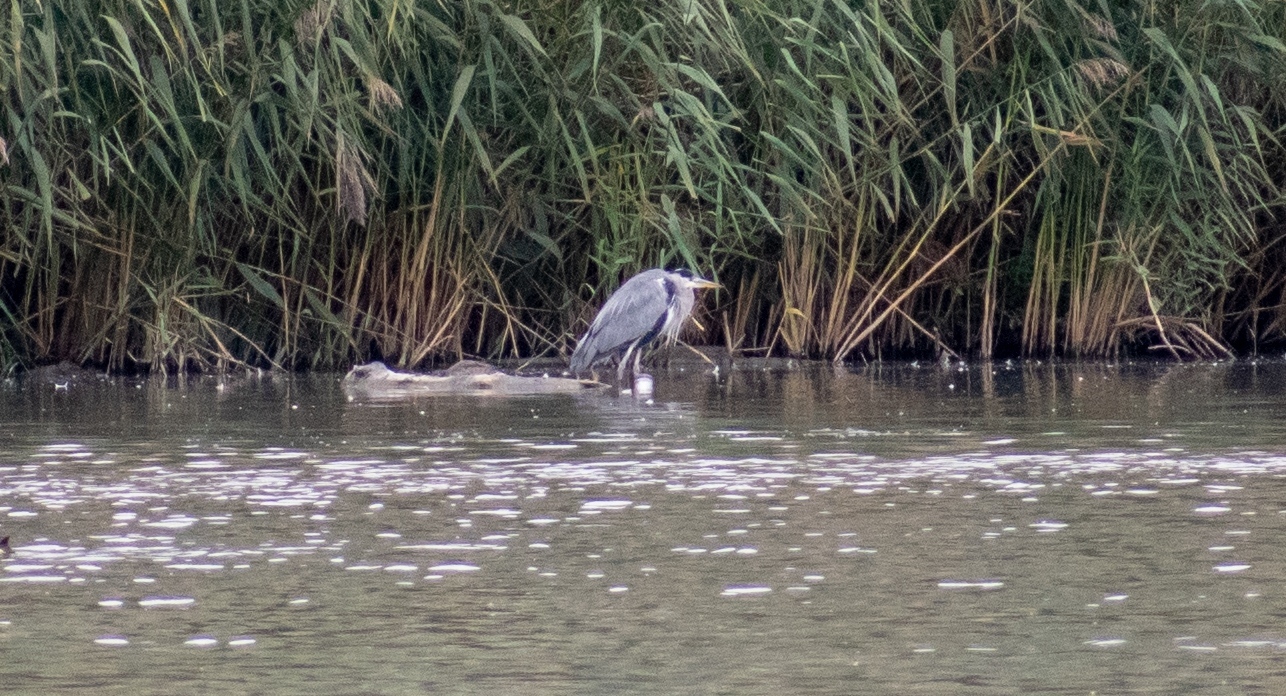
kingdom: Animalia
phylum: Chordata
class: Aves
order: Pelecaniformes
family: Ardeidae
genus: Ardea
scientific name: Ardea cinerea
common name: Grey heron
